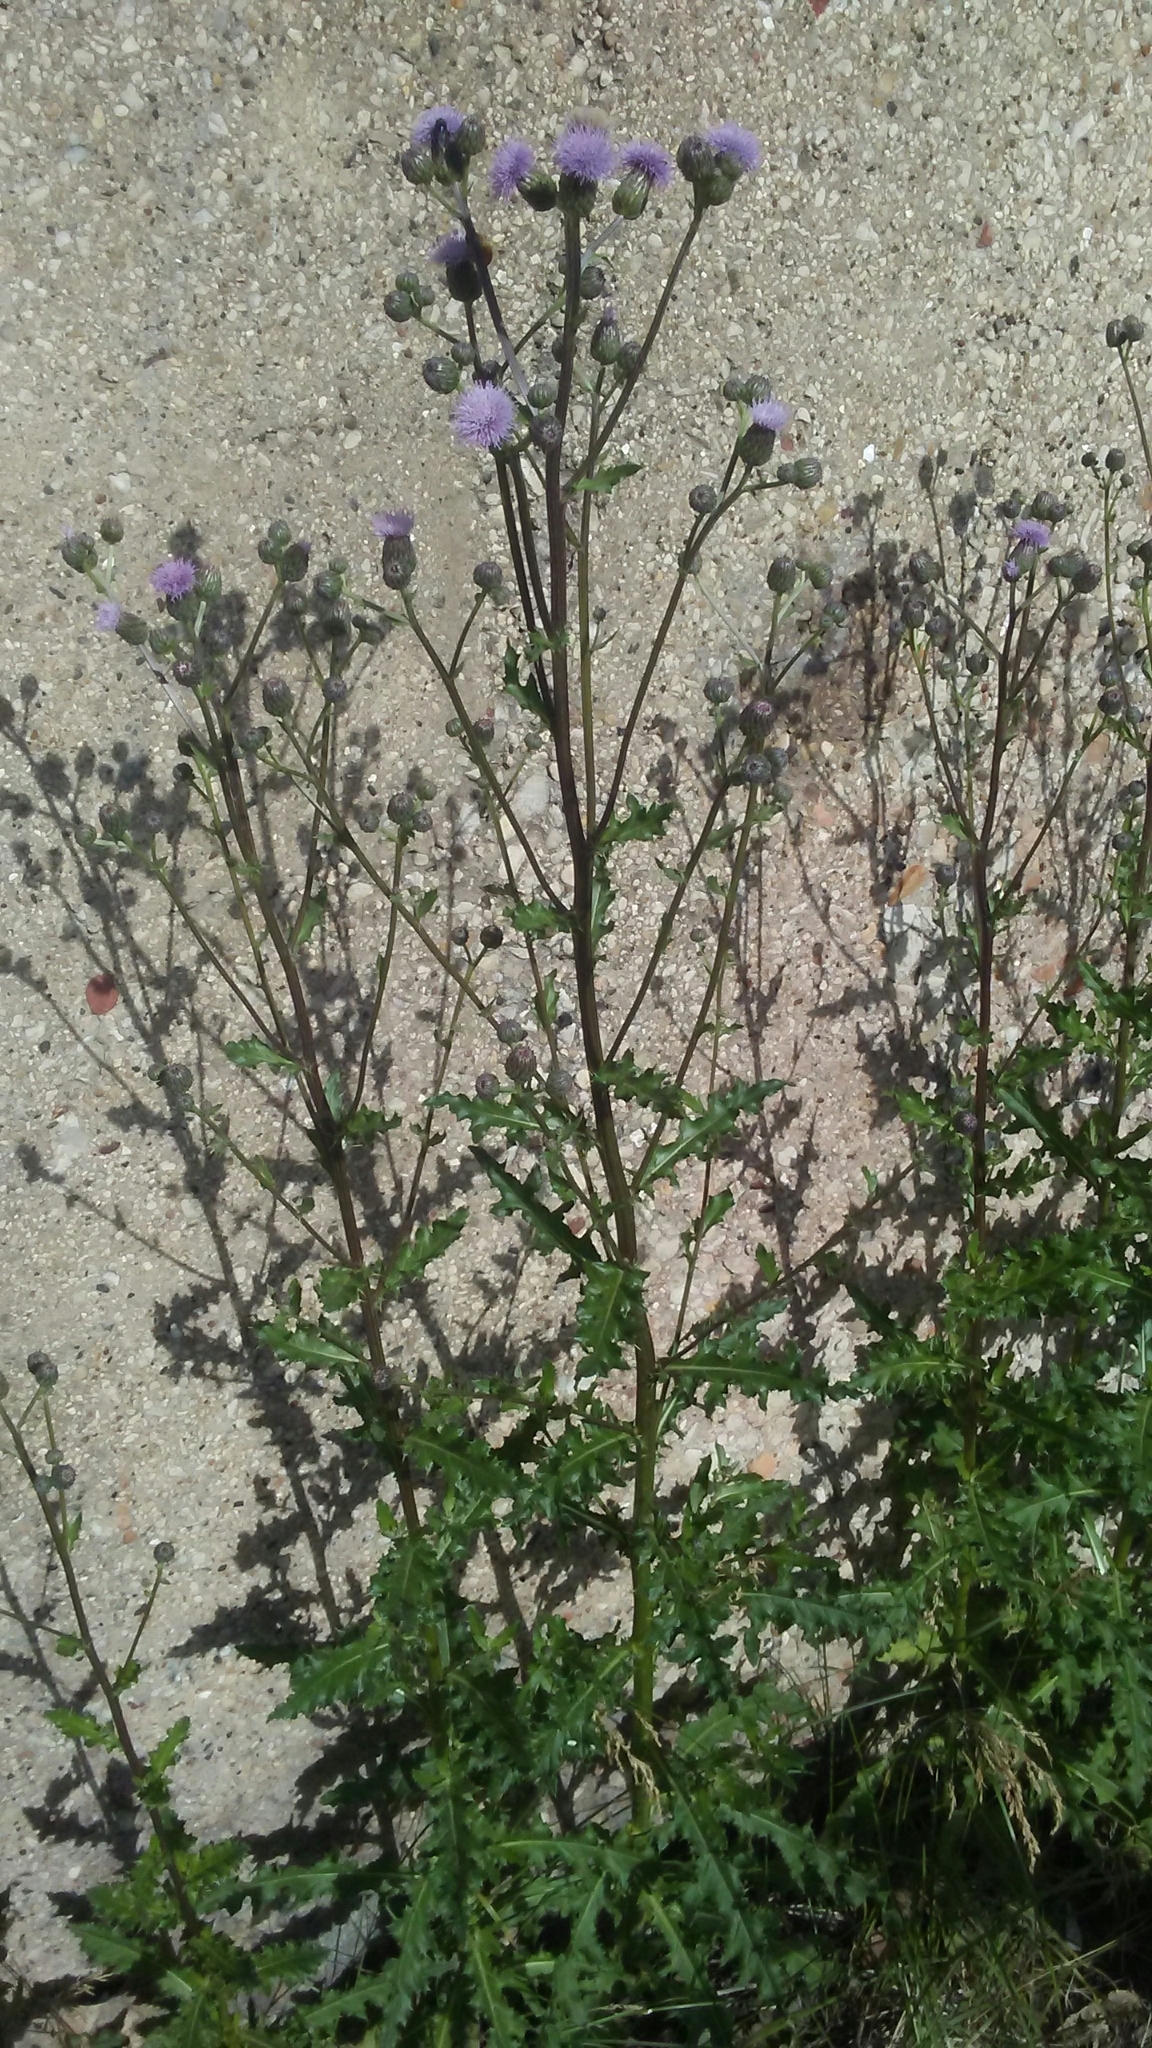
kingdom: Plantae
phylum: Tracheophyta
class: Magnoliopsida
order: Asterales
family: Asteraceae
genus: Cirsium
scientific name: Cirsium arvense
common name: Creeping thistle
